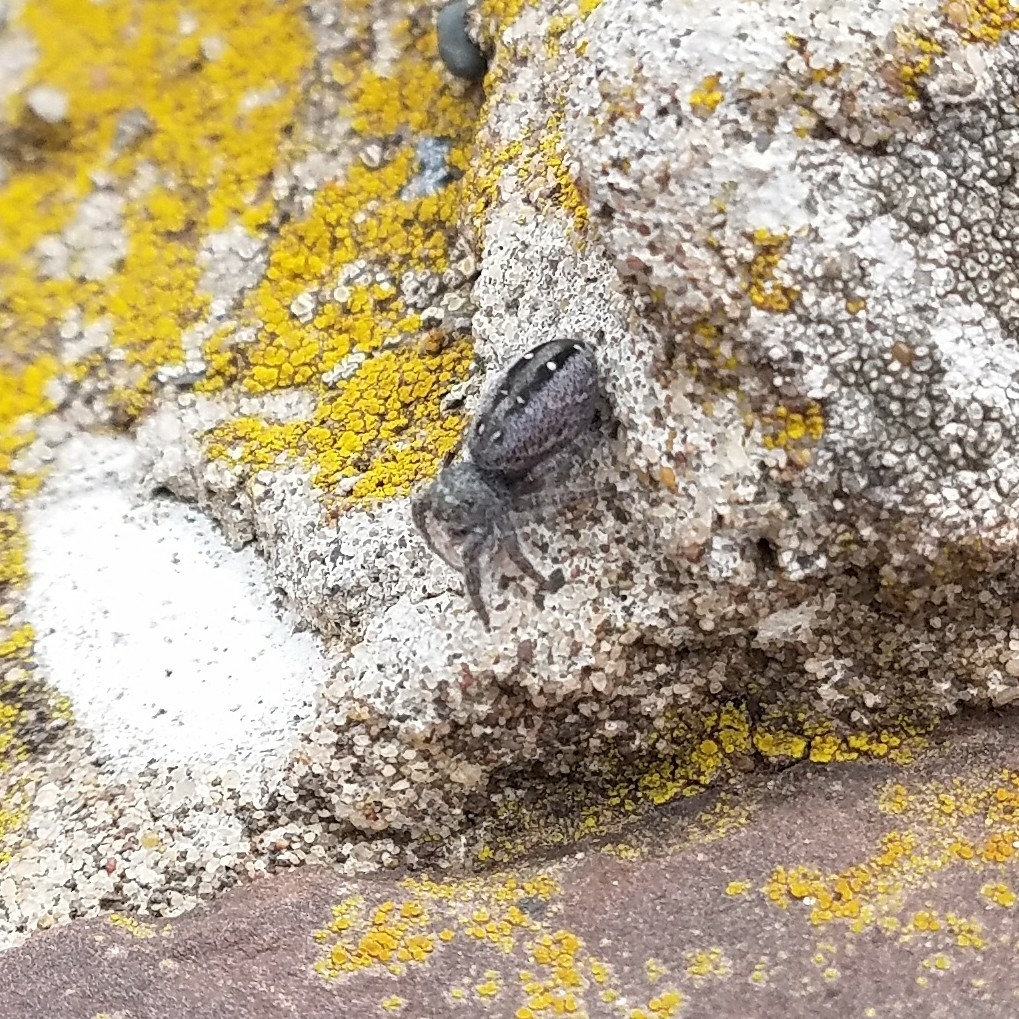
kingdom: Animalia
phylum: Arthropoda
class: Arachnida
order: Araneae
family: Salticidae
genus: Phidippus
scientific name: Phidippus purpuratus
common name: Marbled purple jumping spider
